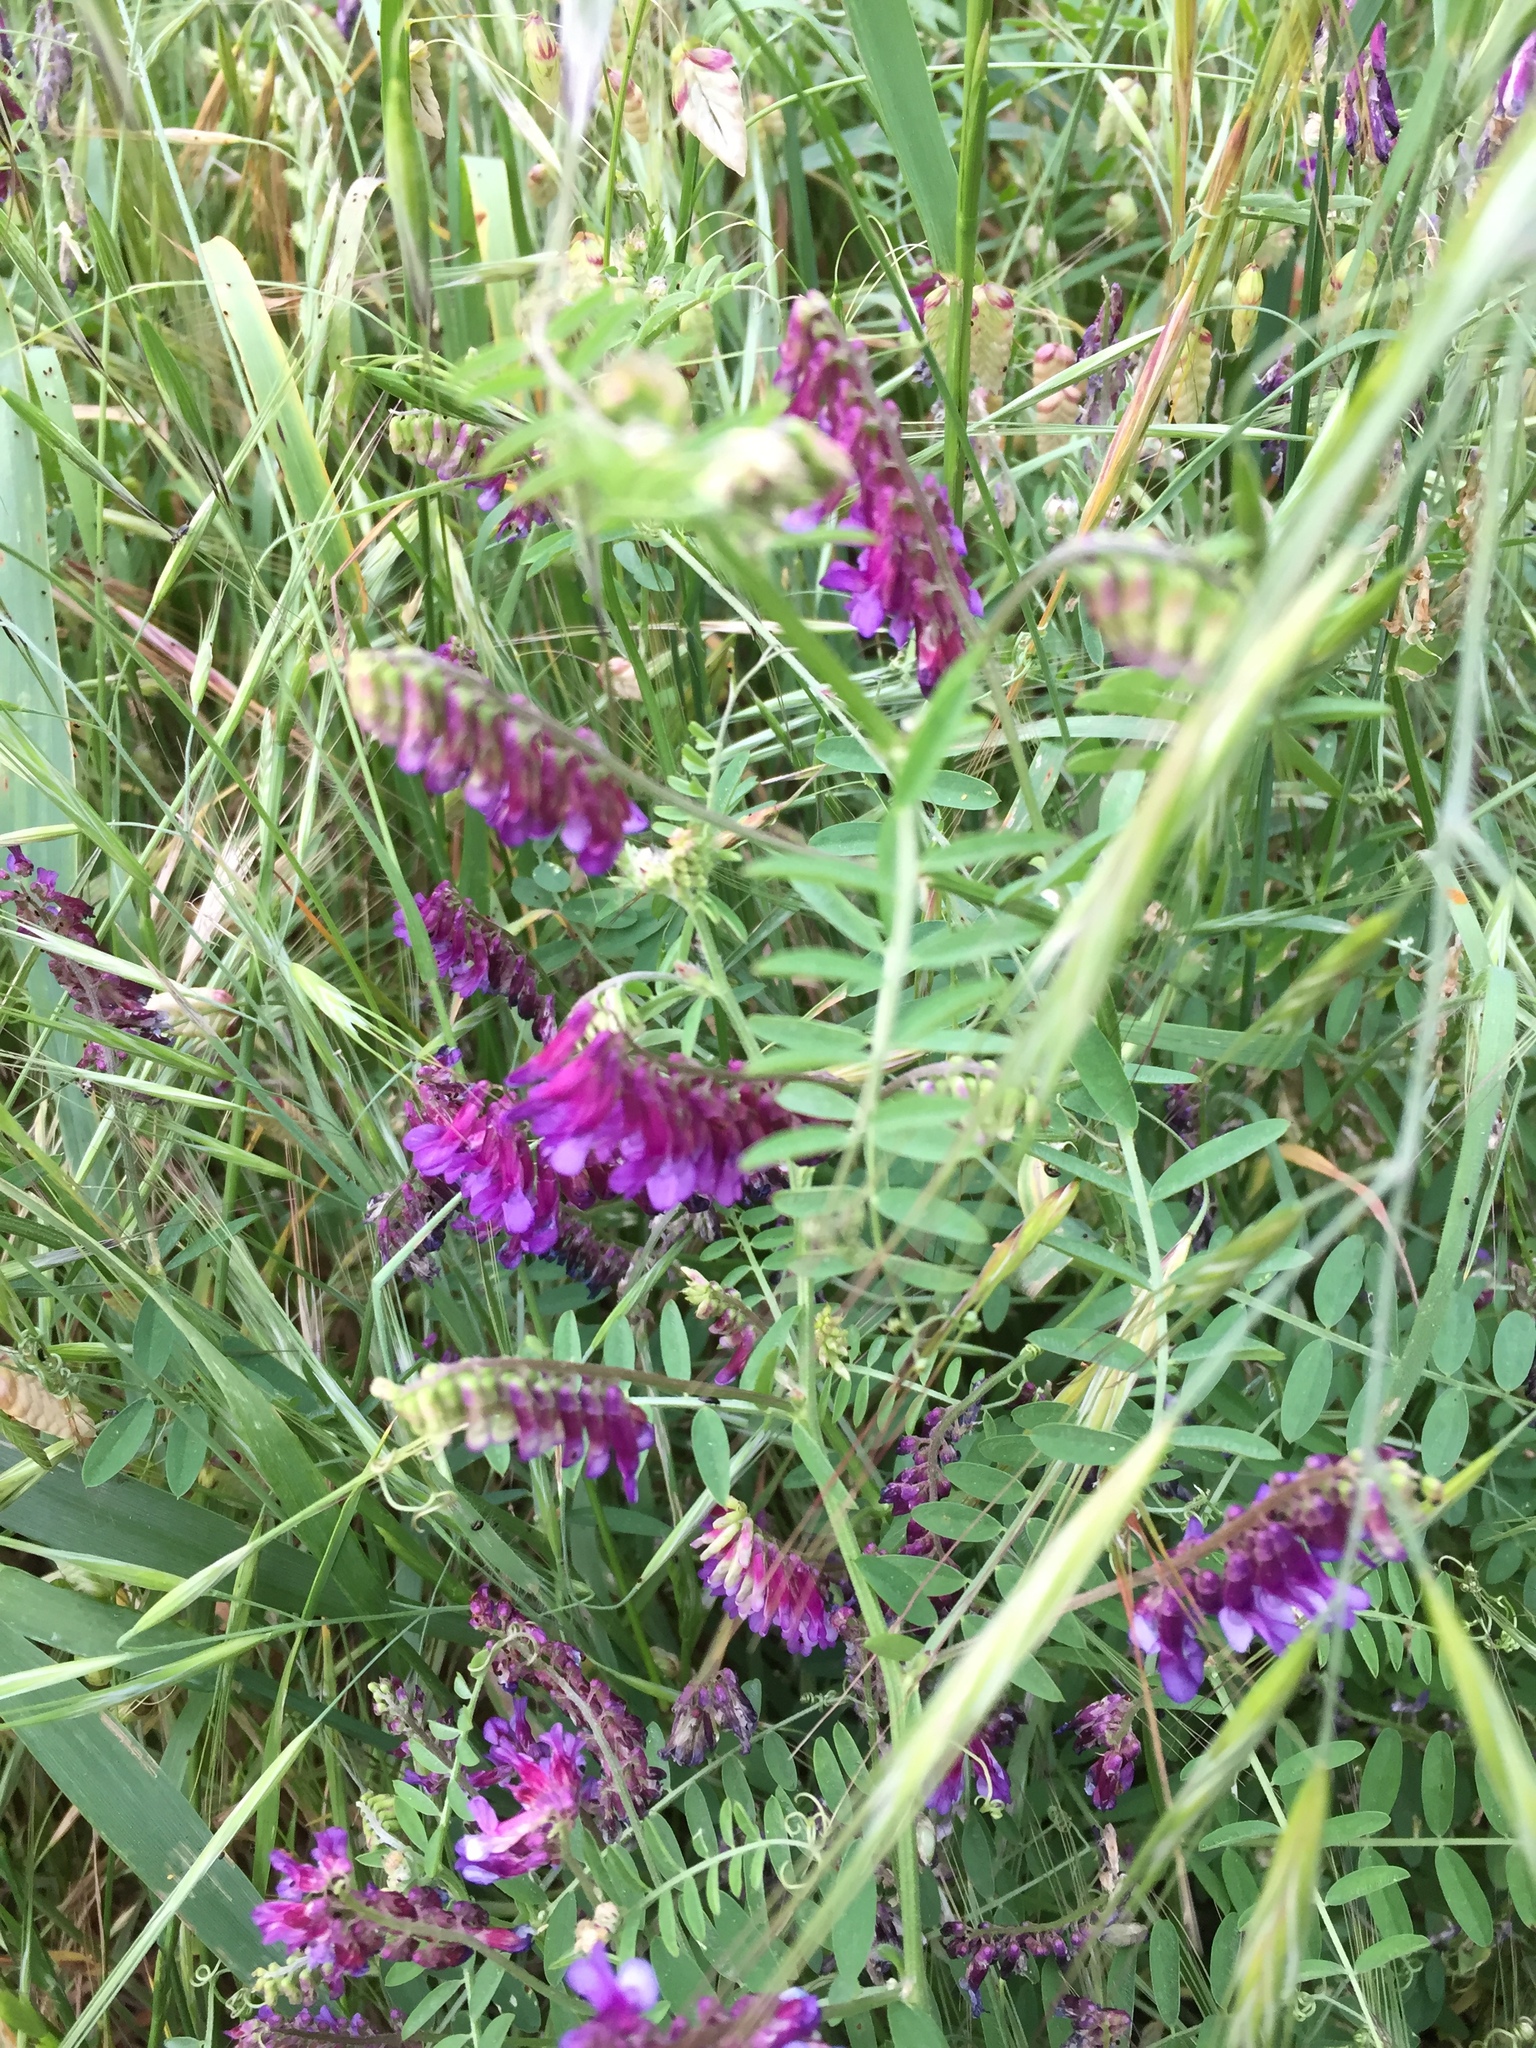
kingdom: Plantae
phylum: Tracheophyta
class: Magnoliopsida
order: Fabales
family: Fabaceae
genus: Vicia
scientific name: Vicia eriocarpa
